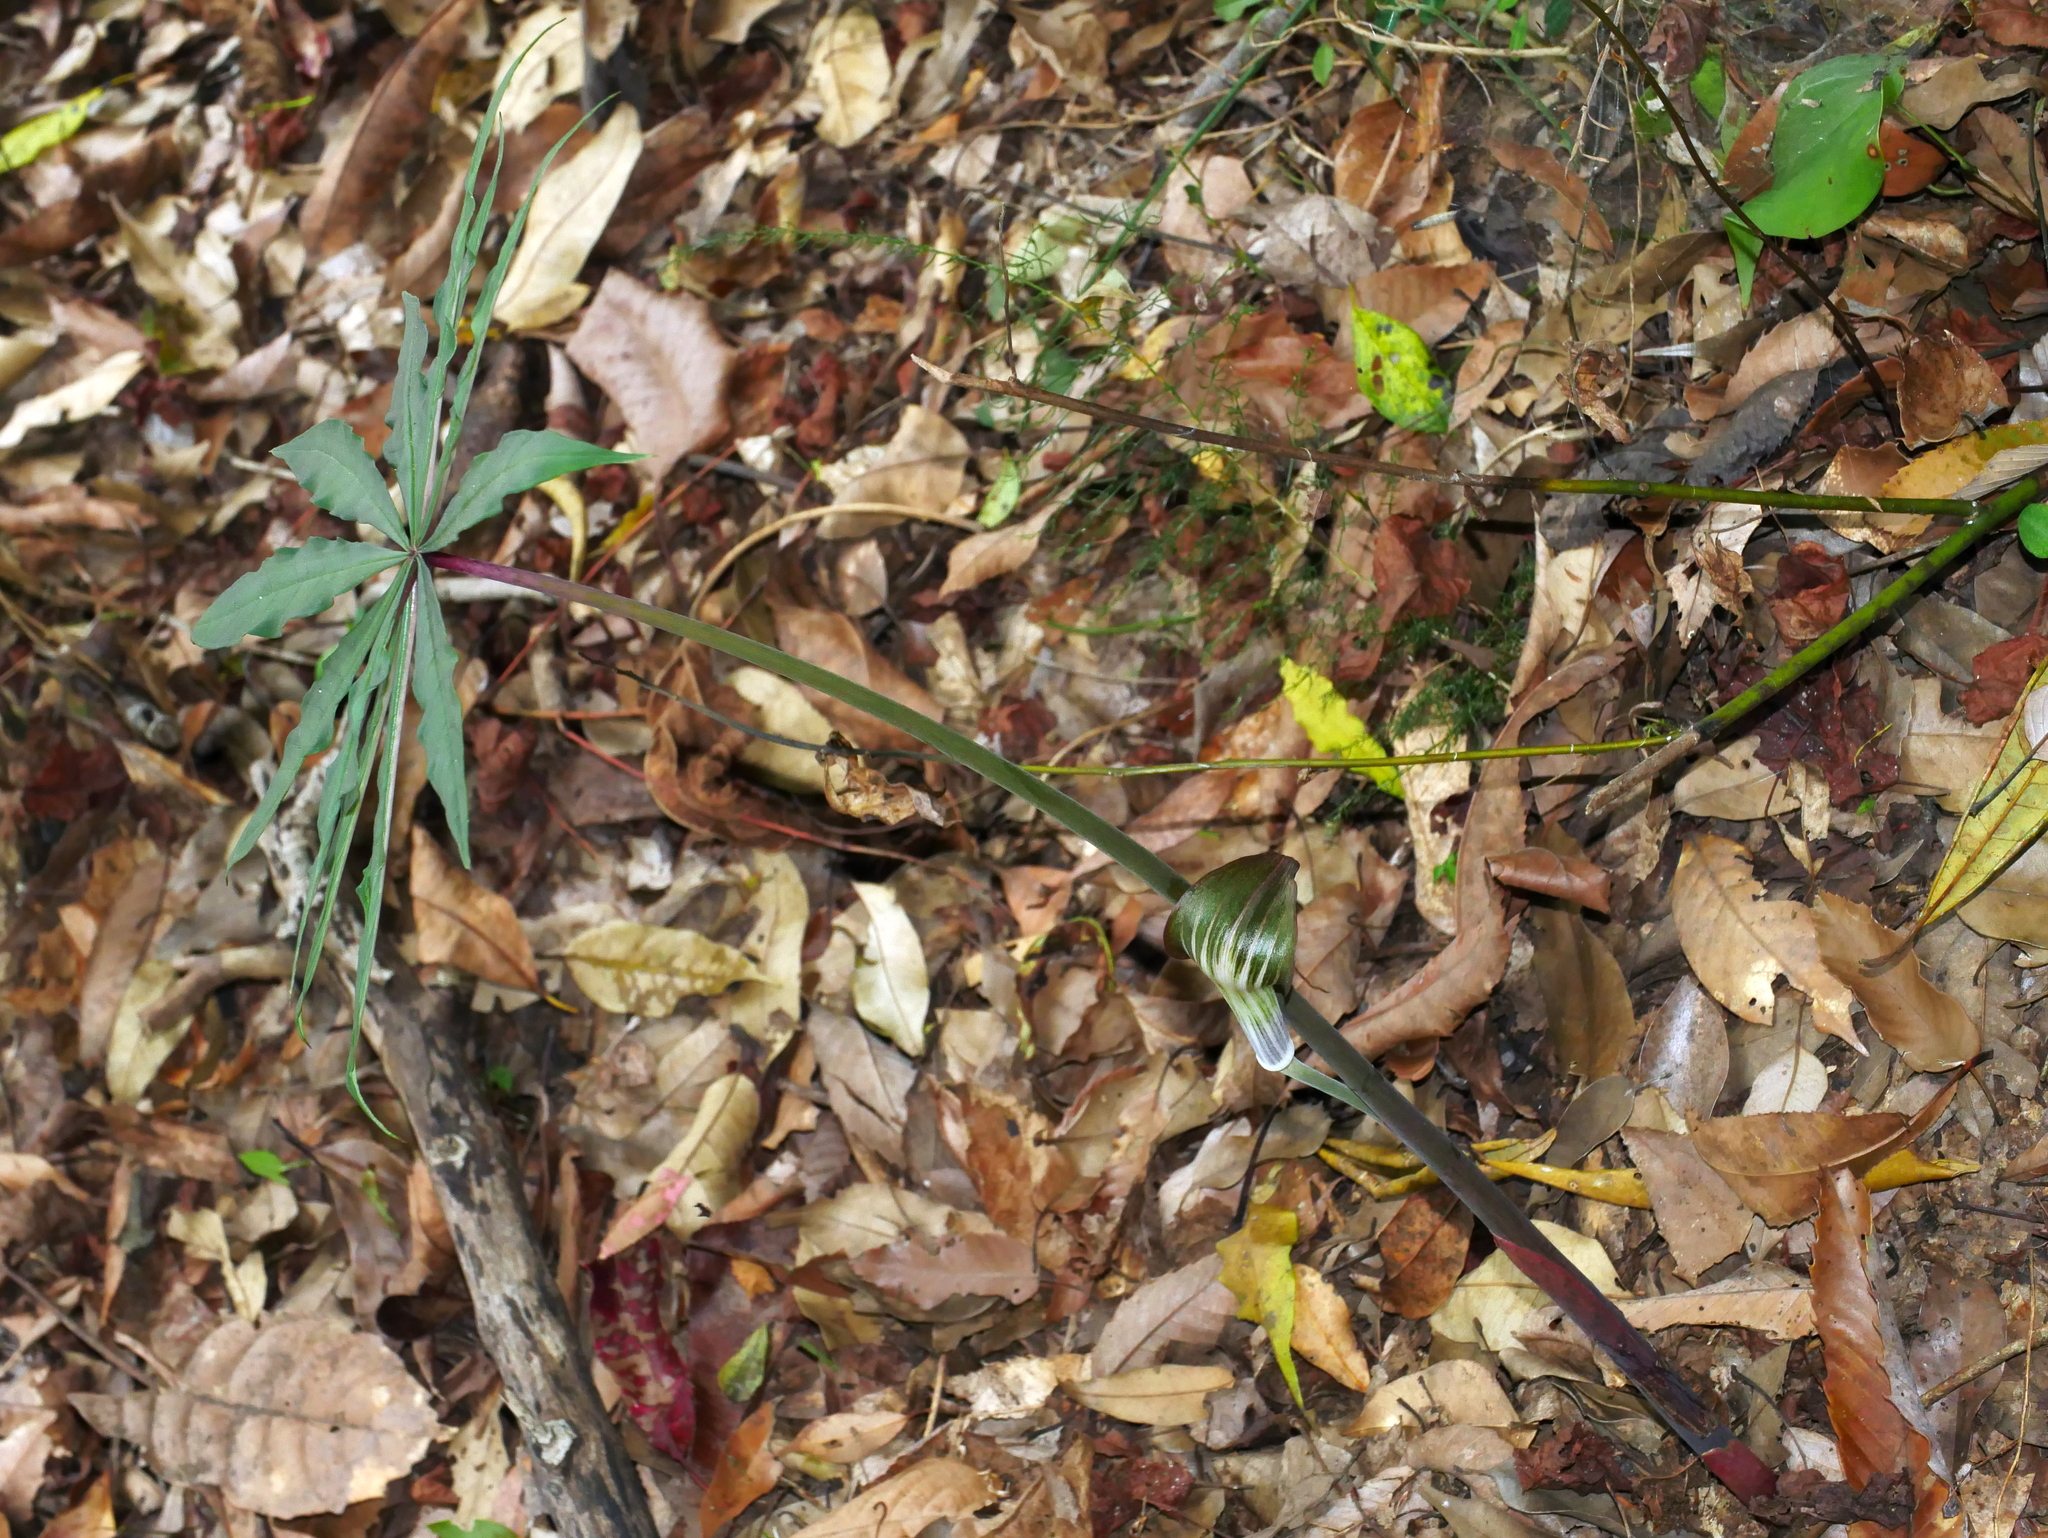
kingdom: Plantae
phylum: Tracheophyta
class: Liliopsida
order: Alismatales
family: Araceae
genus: Arisaema
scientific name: Arisaema consanguineum
